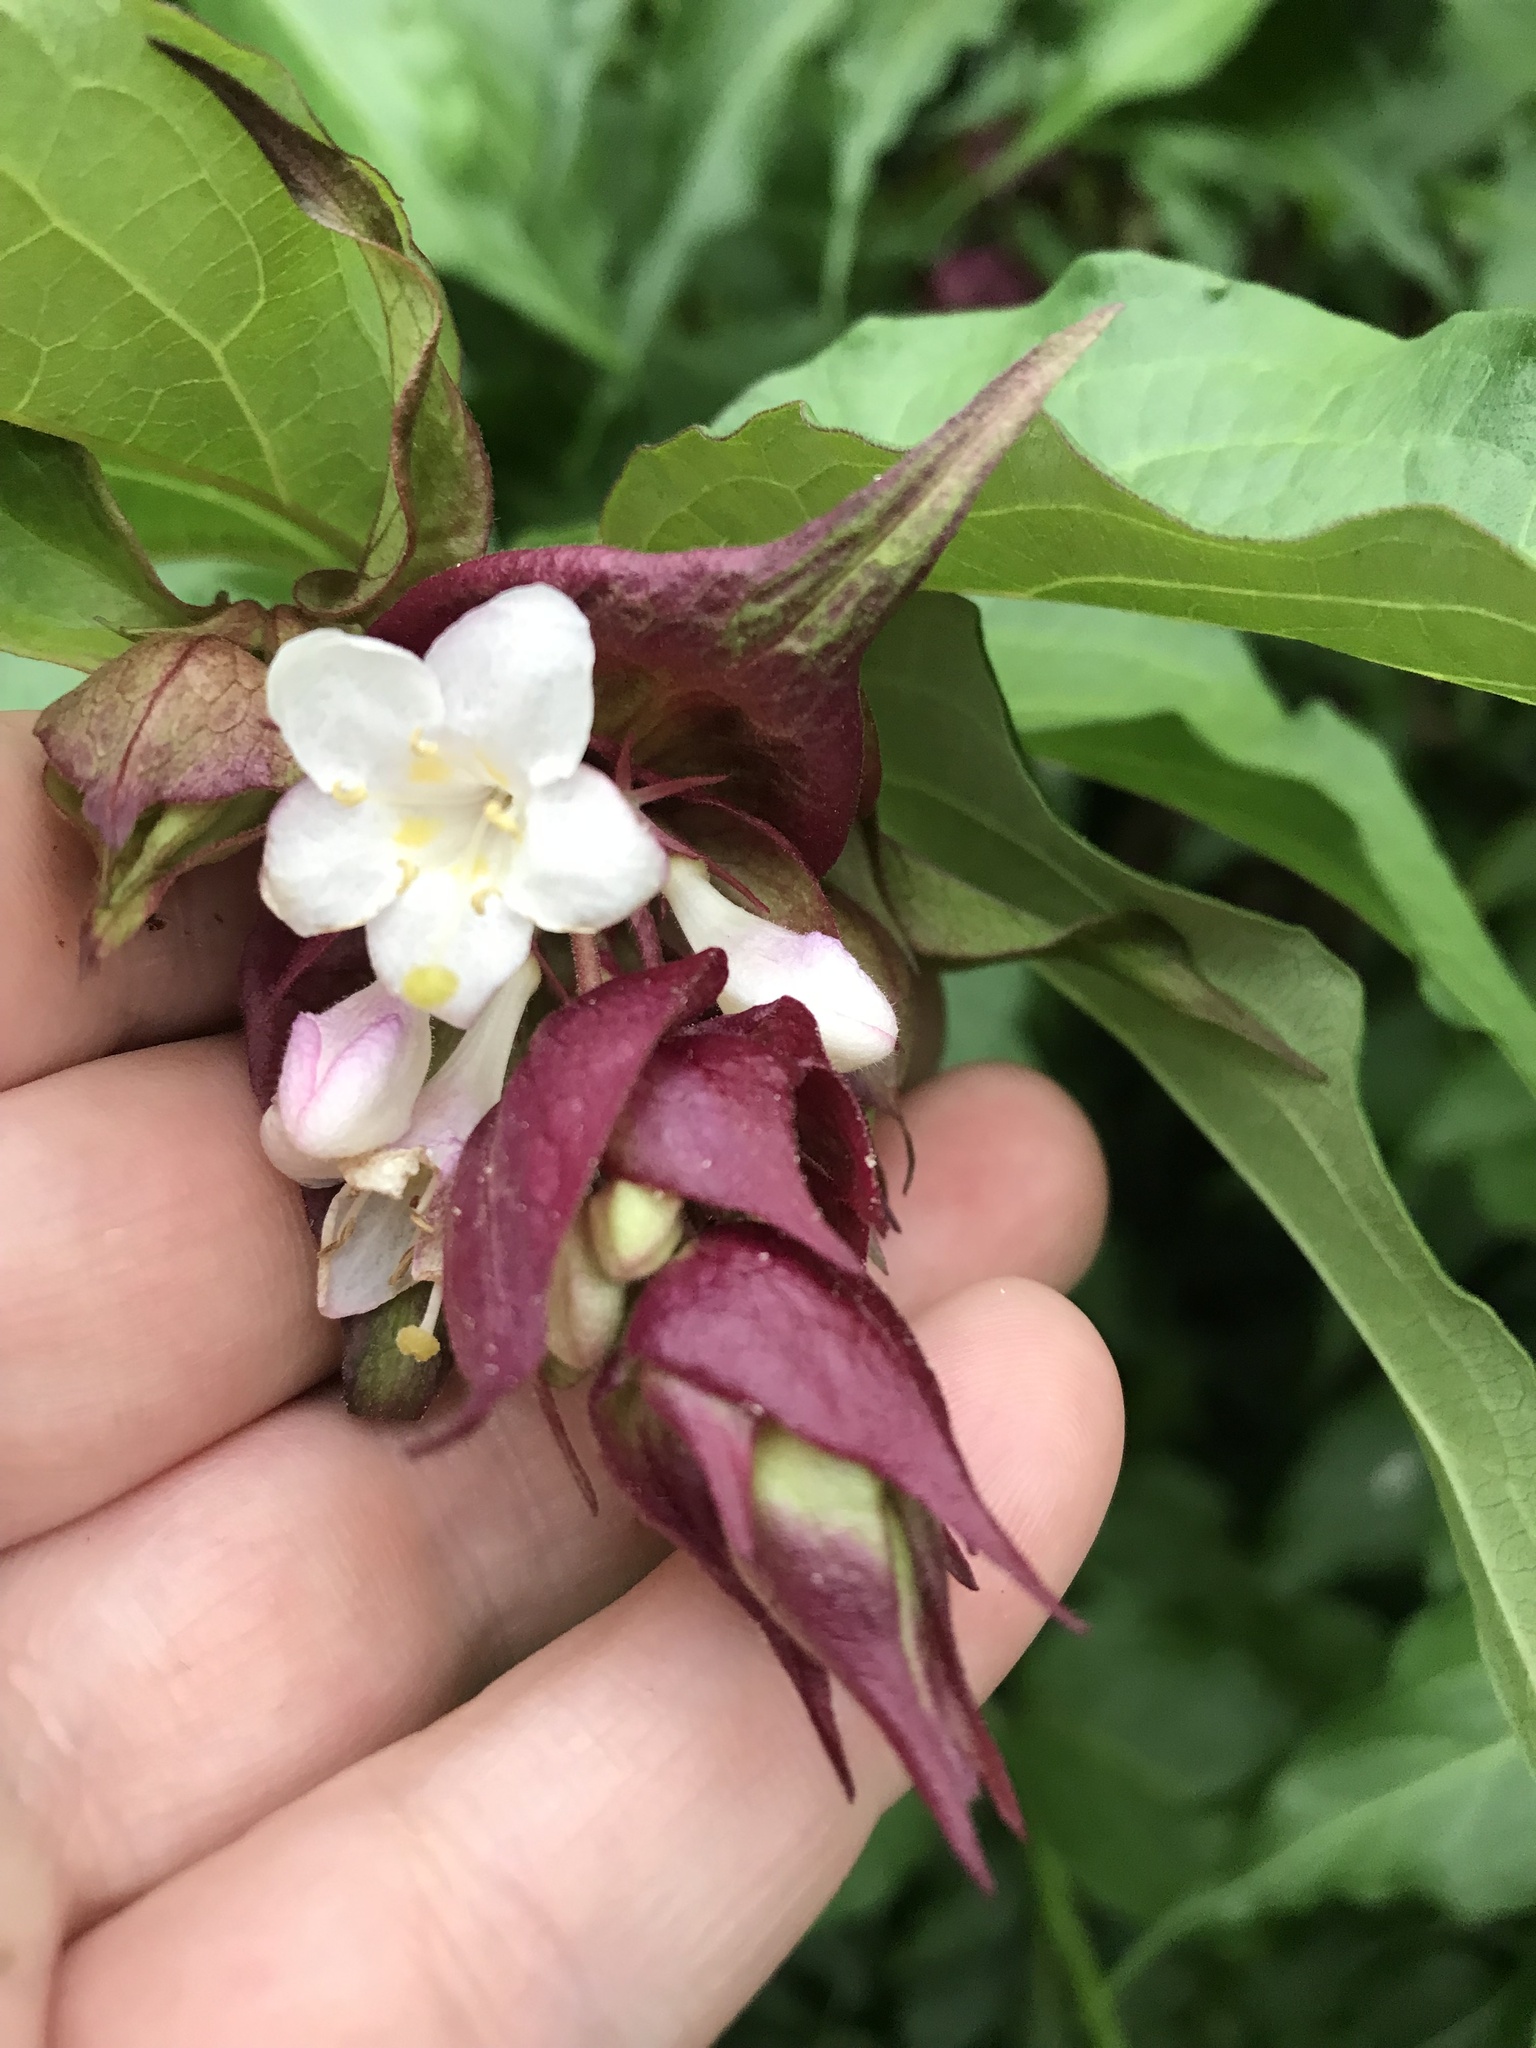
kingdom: Plantae
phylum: Tracheophyta
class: Magnoliopsida
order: Dipsacales
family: Caprifoliaceae
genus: Leycesteria
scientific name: Leycesteria formosa
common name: Himalayan honeysuckle
